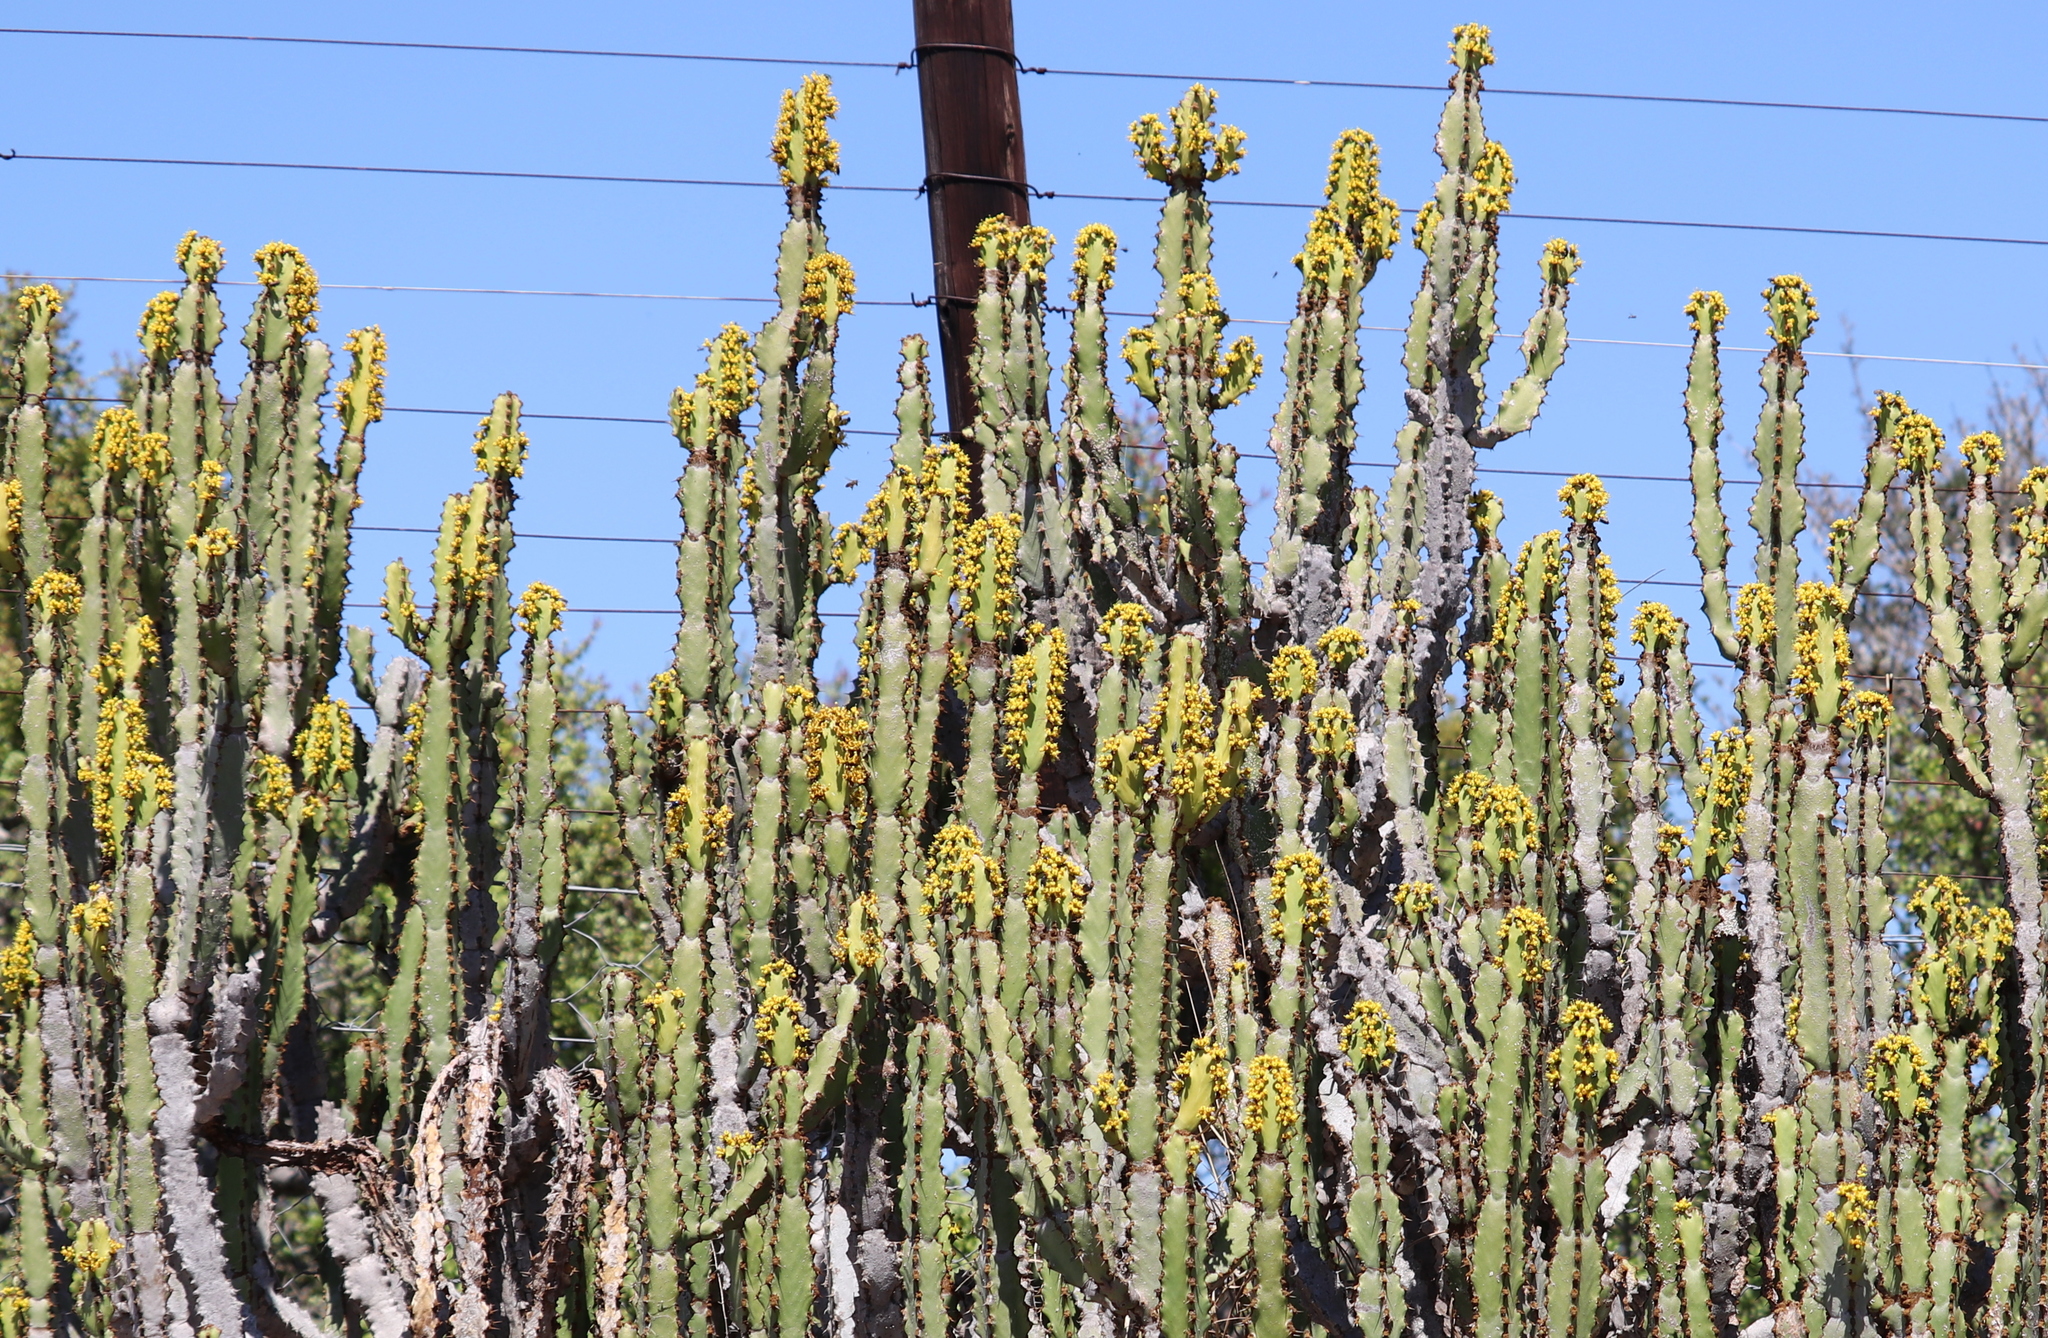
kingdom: Plantae
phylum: Tracheophyta
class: Magnoliopsida
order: Malpighiales
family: Euphorbiaceae
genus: Euphorbia
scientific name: Euphorbia caerulescens
